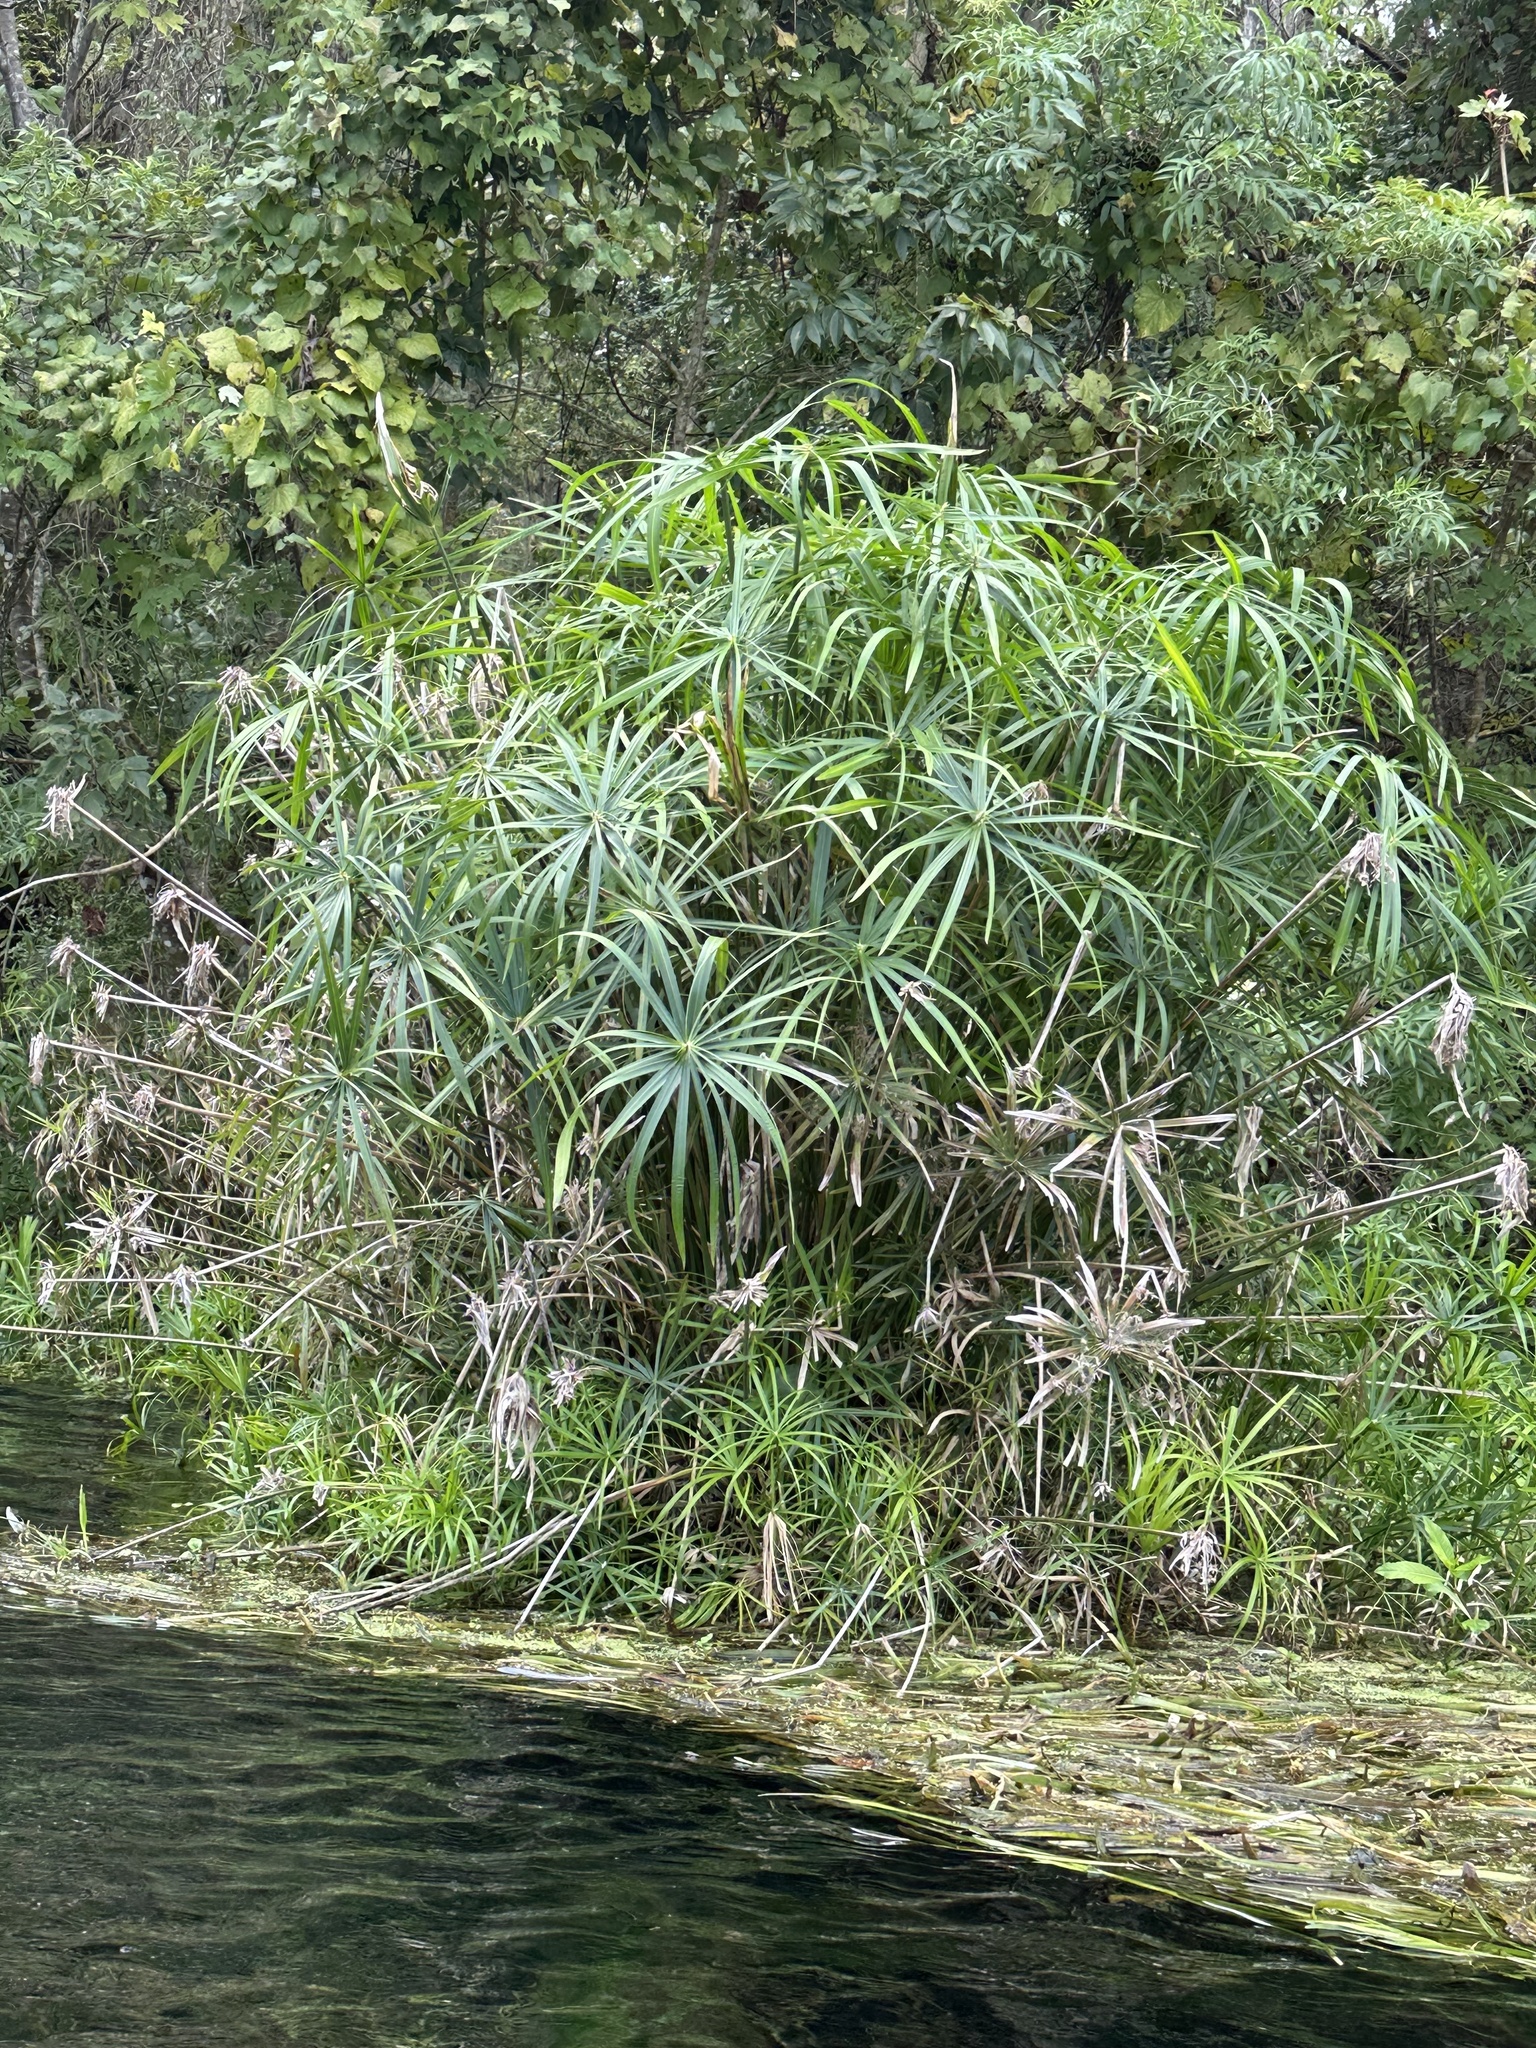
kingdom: Plantae
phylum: Tracheophyta
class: Liliopsida
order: Poales
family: Cyperaceae
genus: Cyperus
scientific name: Cyperus alternifolius
